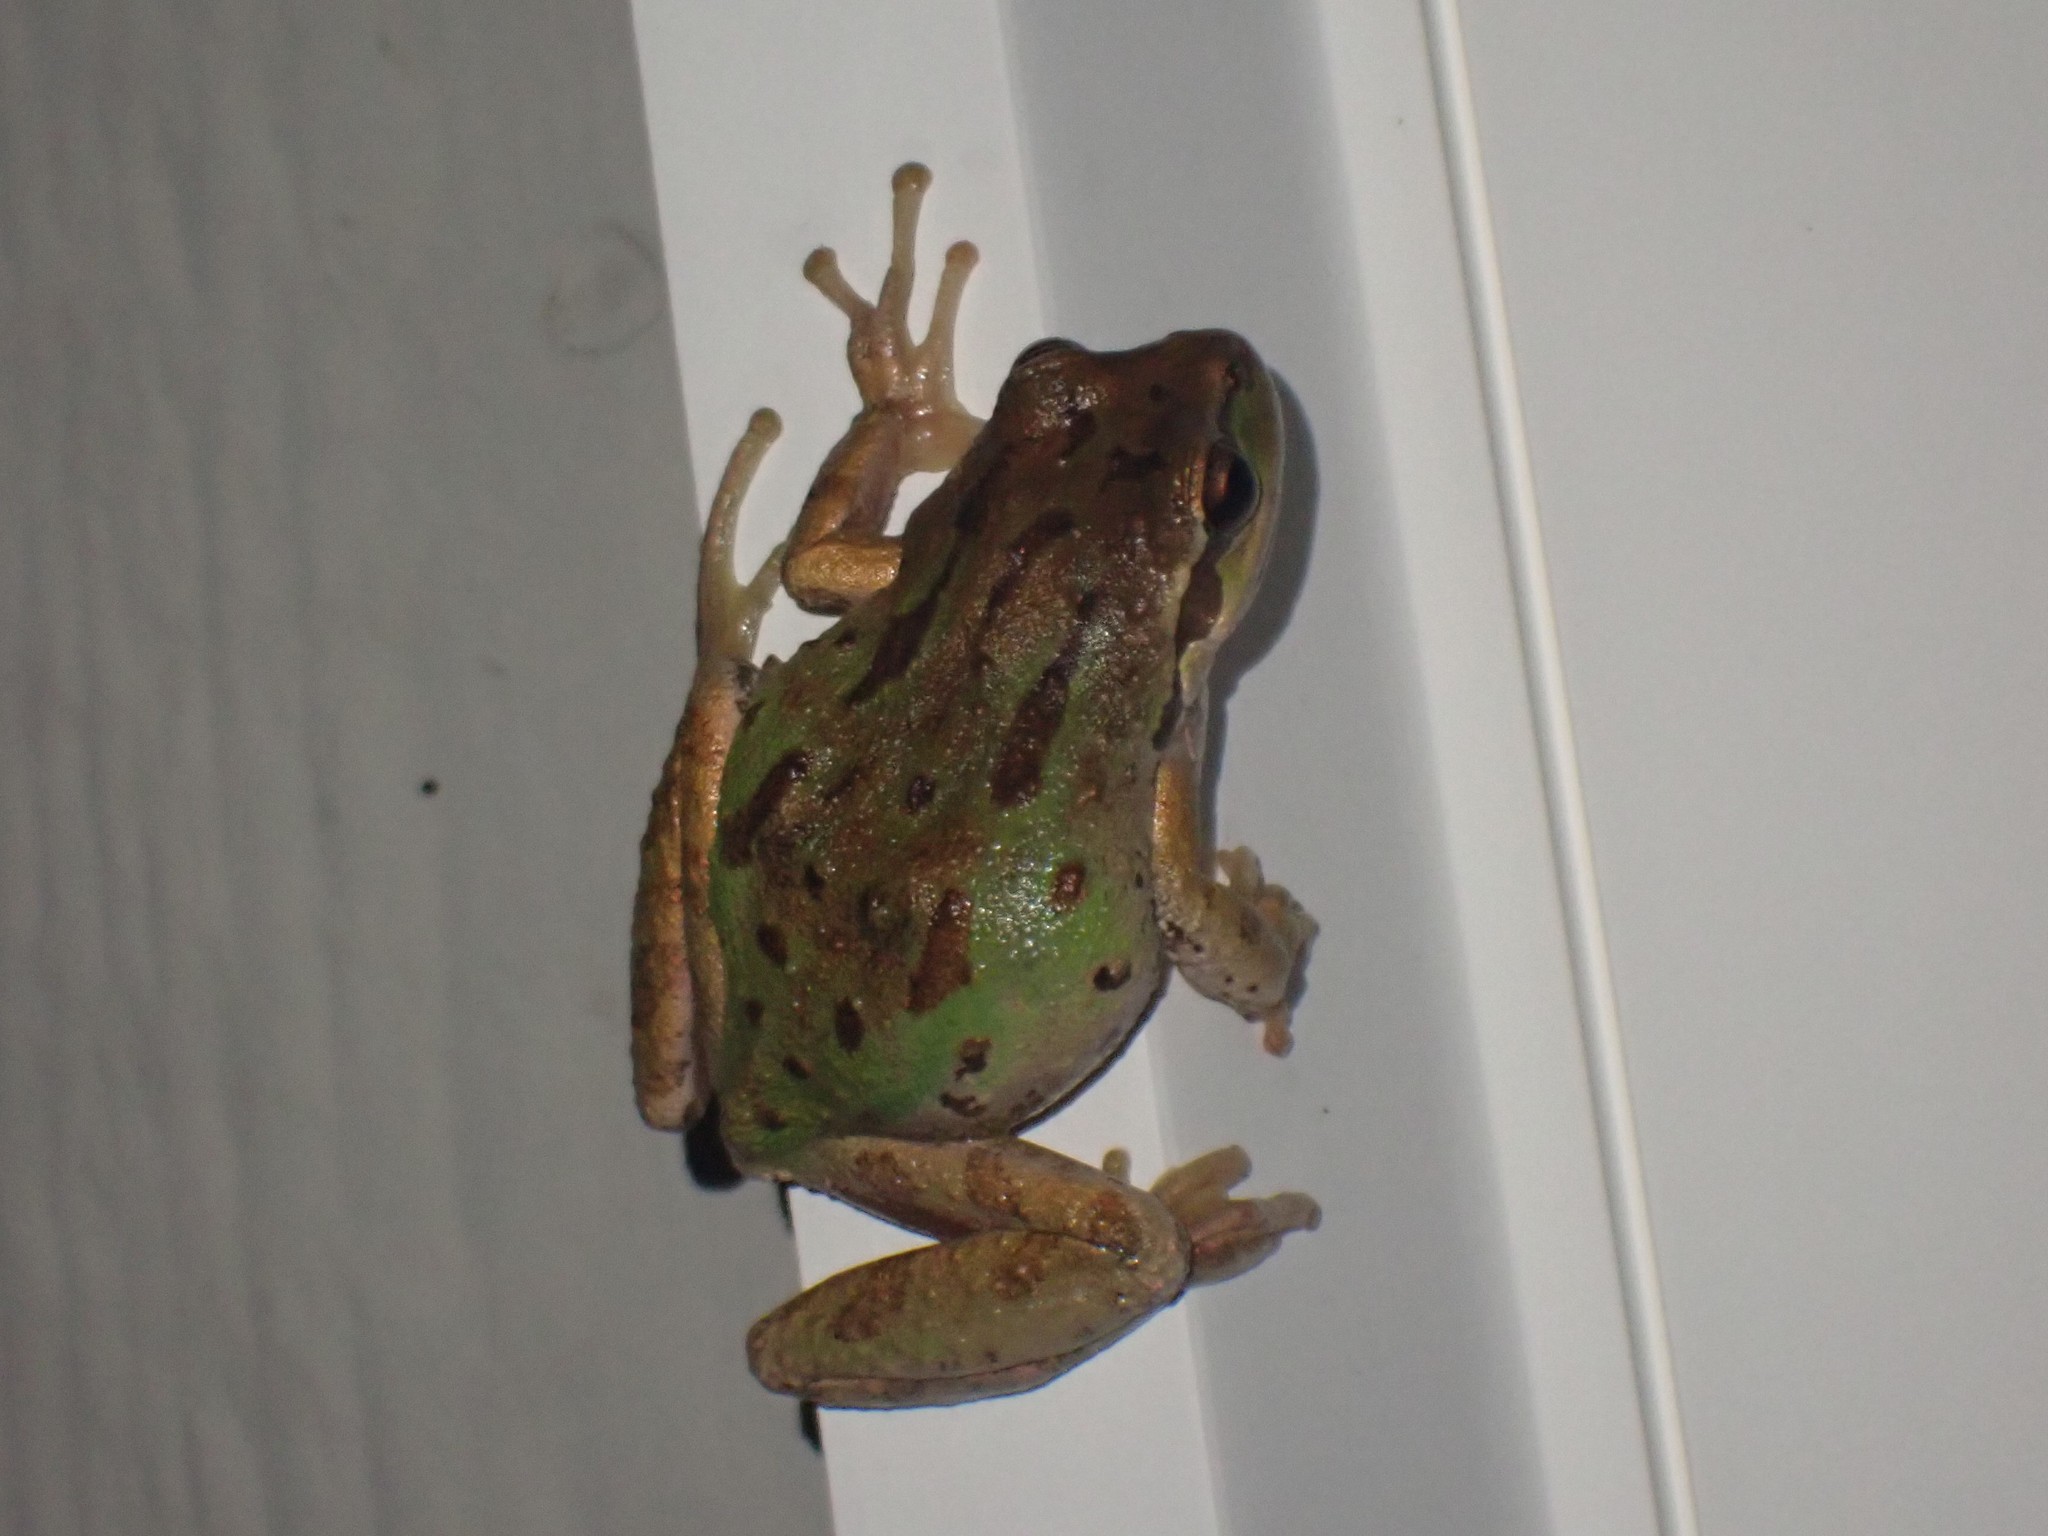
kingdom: Animalia
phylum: Chordata
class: Amphibia
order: Anura
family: Hylidae
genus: Pseudacris
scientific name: Pseudacris regilla
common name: Pacific chorus frog
